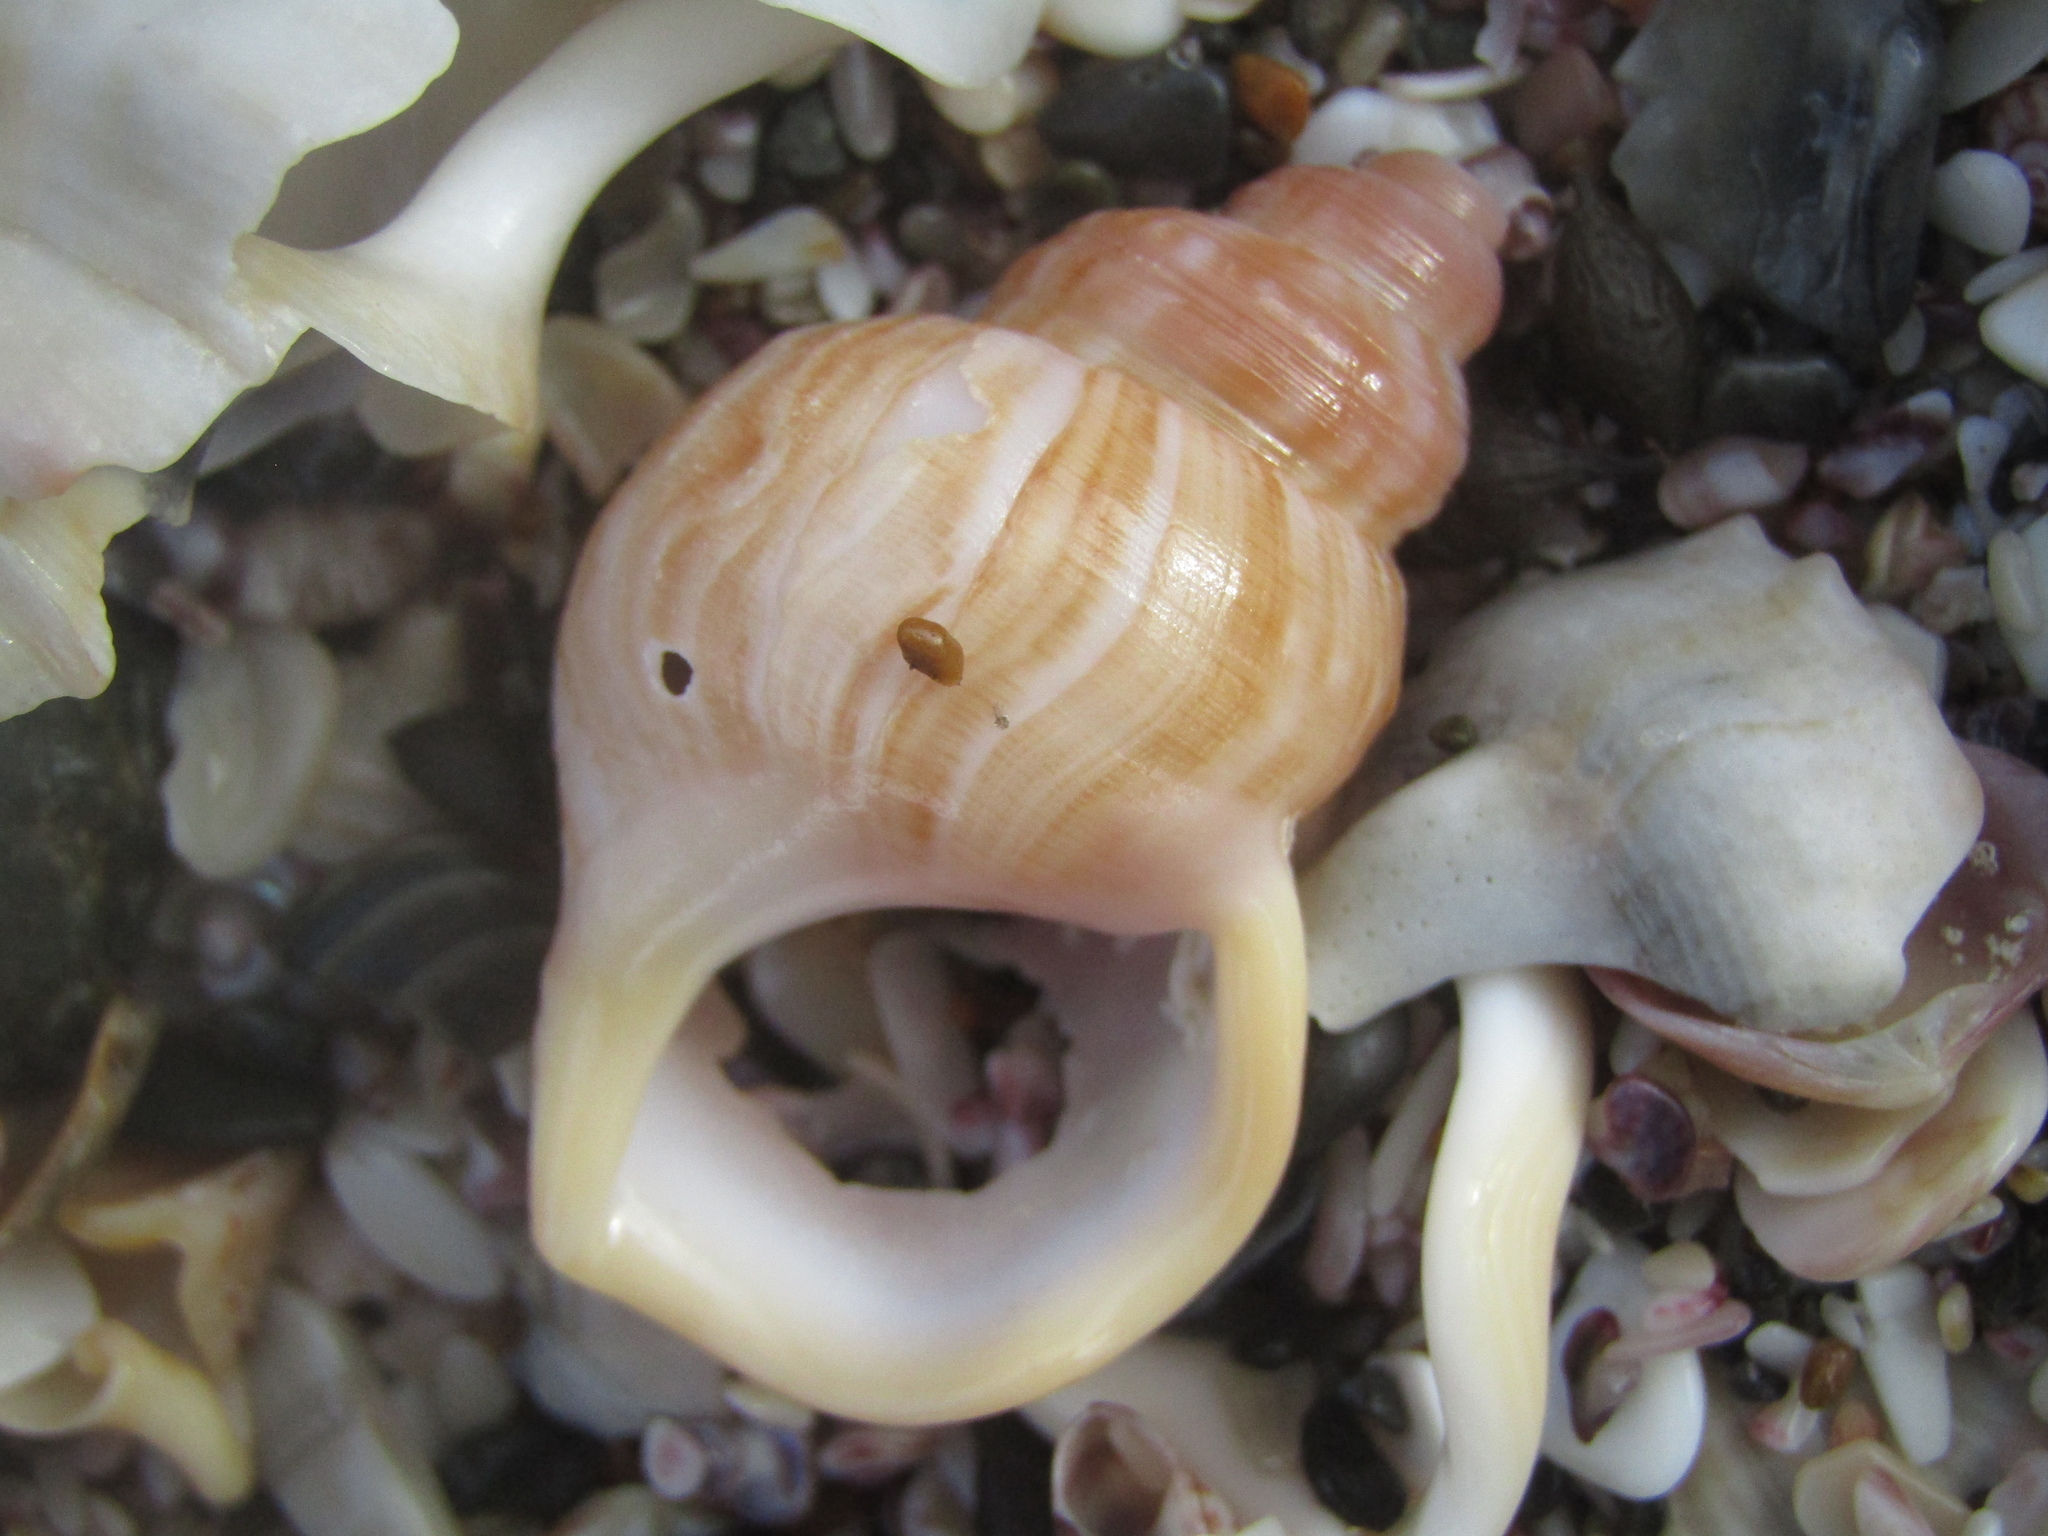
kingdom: Animalia
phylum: Mollusca
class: Gastropoda
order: Littorinimorpha
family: Struthiolariidae
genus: Pelicaria
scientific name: Pelicaria vermis
